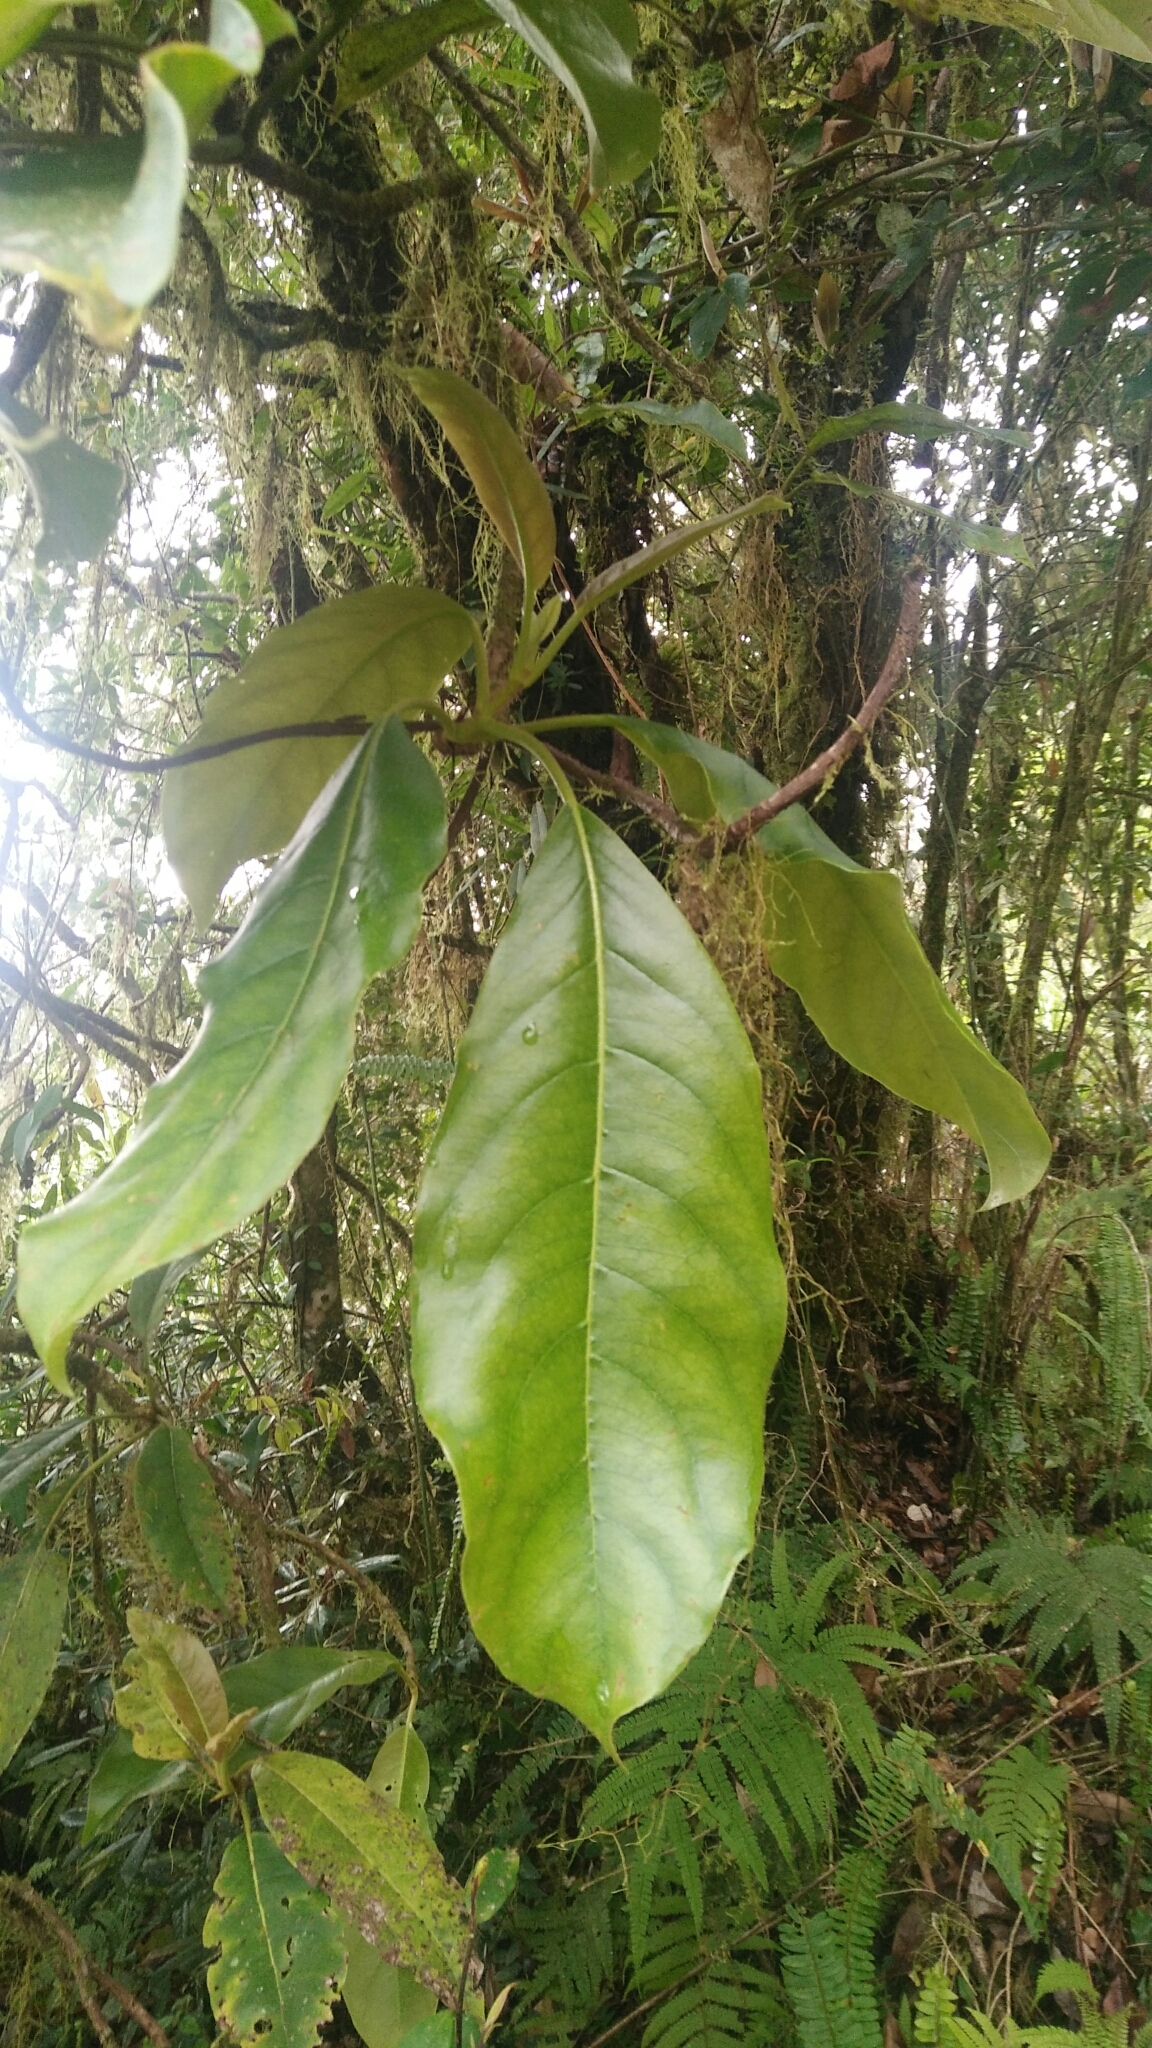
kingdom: Plantae
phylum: Tracheophyta
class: Magnoliopsida
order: Cornales
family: Hydrangeaceae
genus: Hydrangea
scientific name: Hydrangea integrifolia
